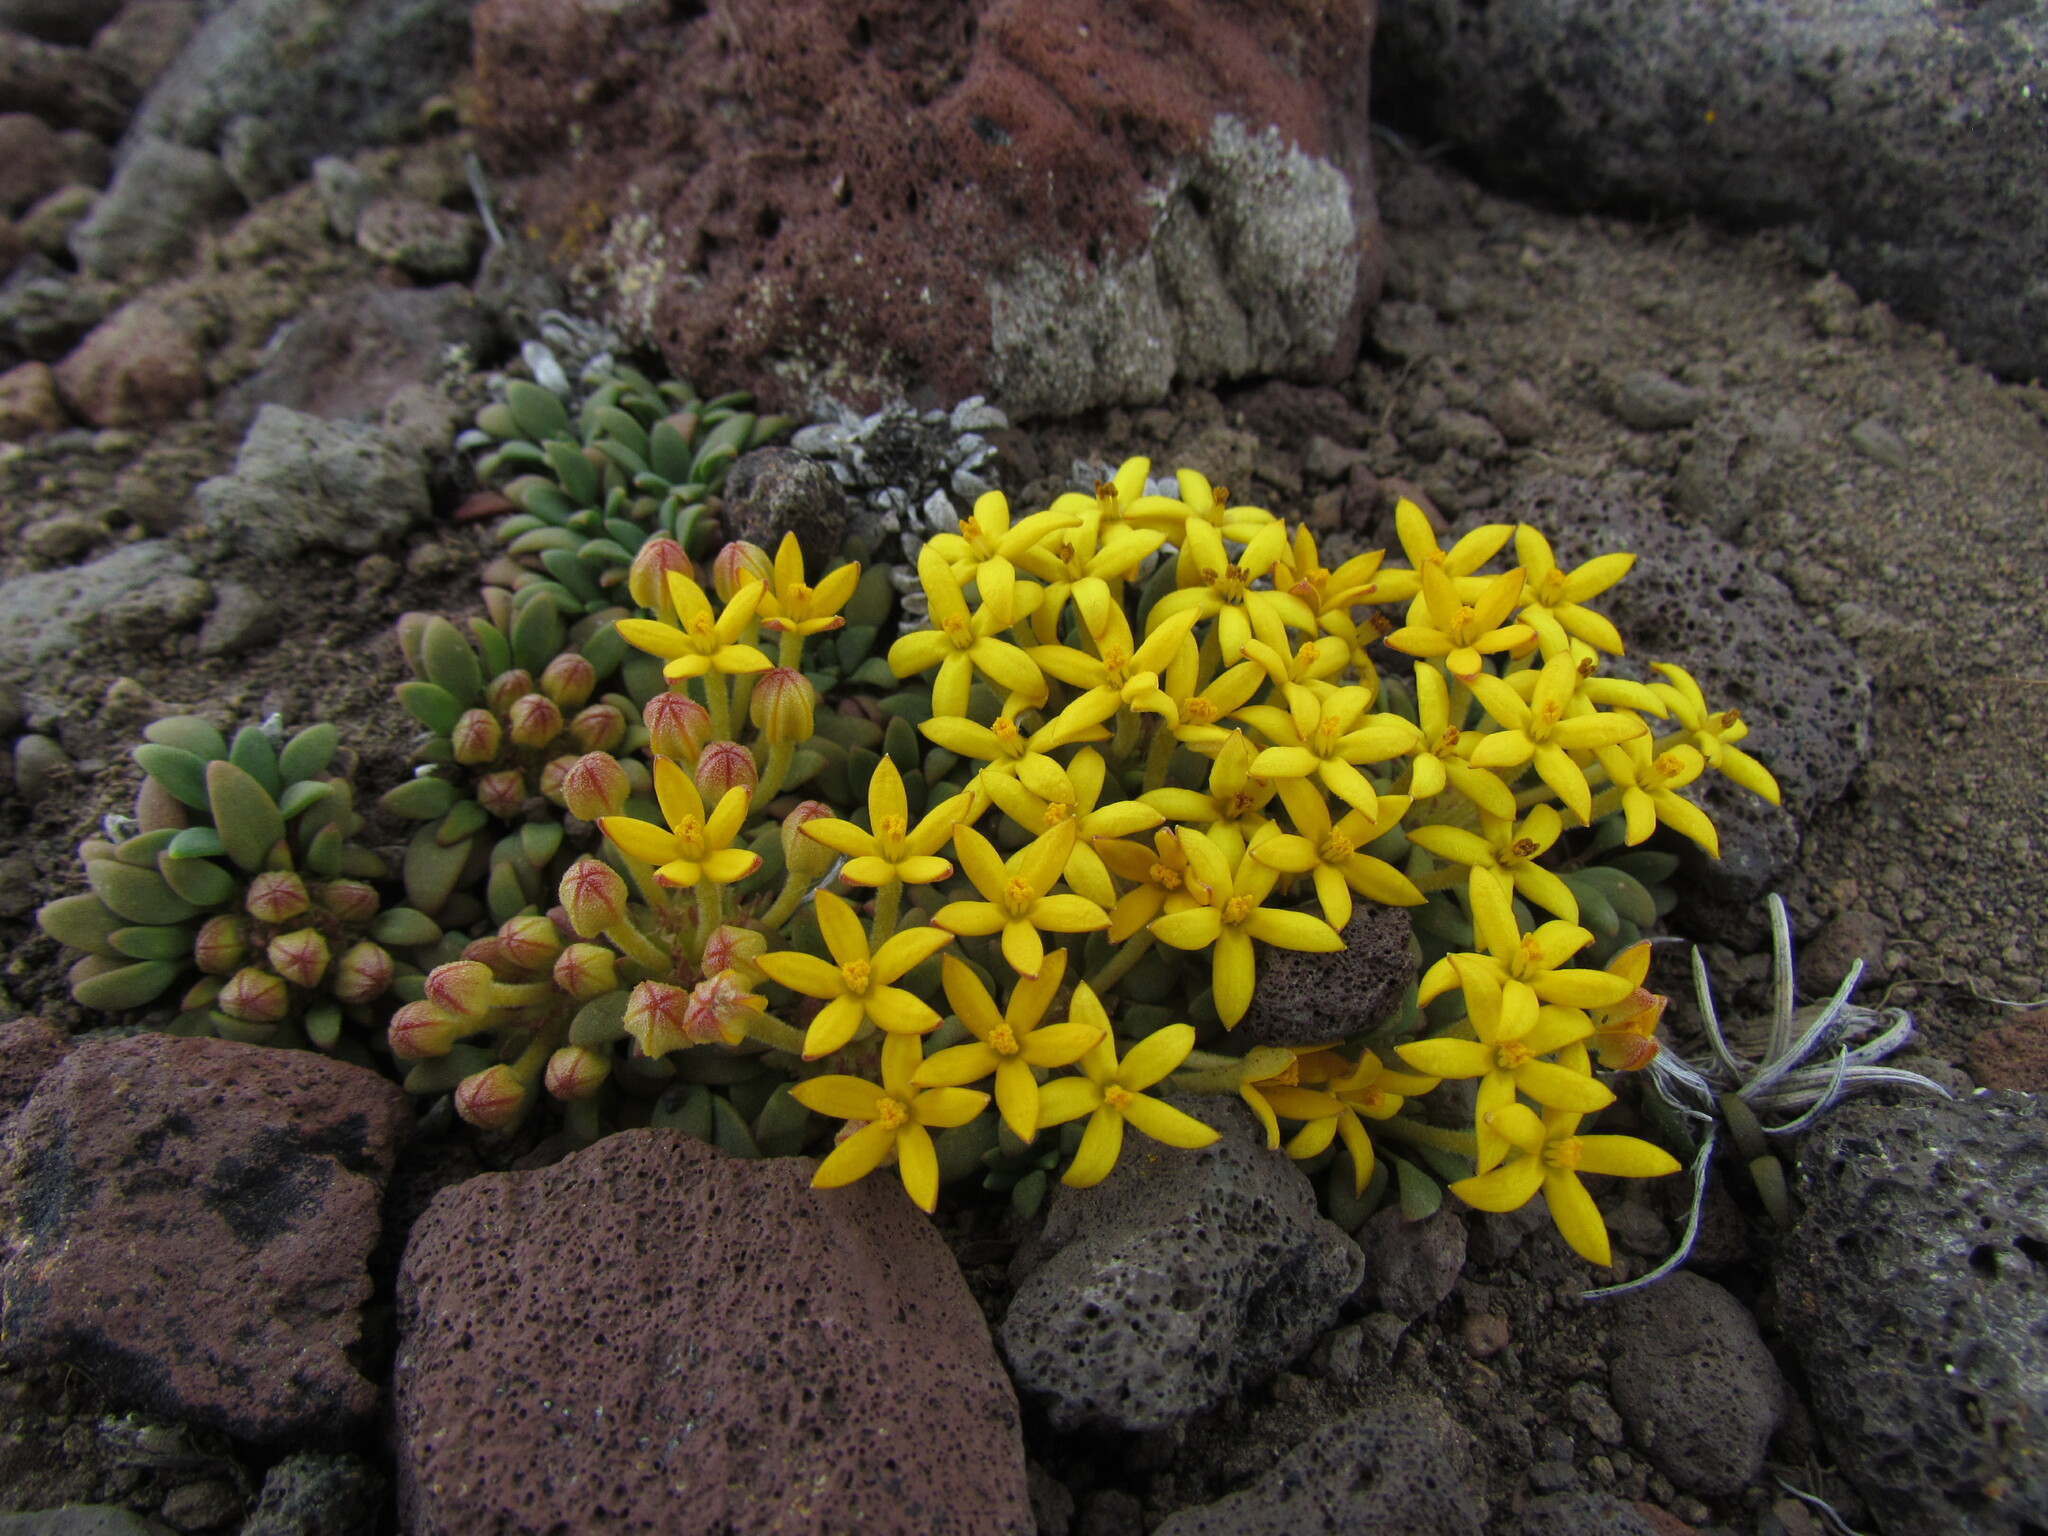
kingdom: Plantae
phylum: Tracheophyta
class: Magnoliopsida
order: Gentianales
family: Rubiaceae
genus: Oreopolus
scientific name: Oreopolus glacialis
